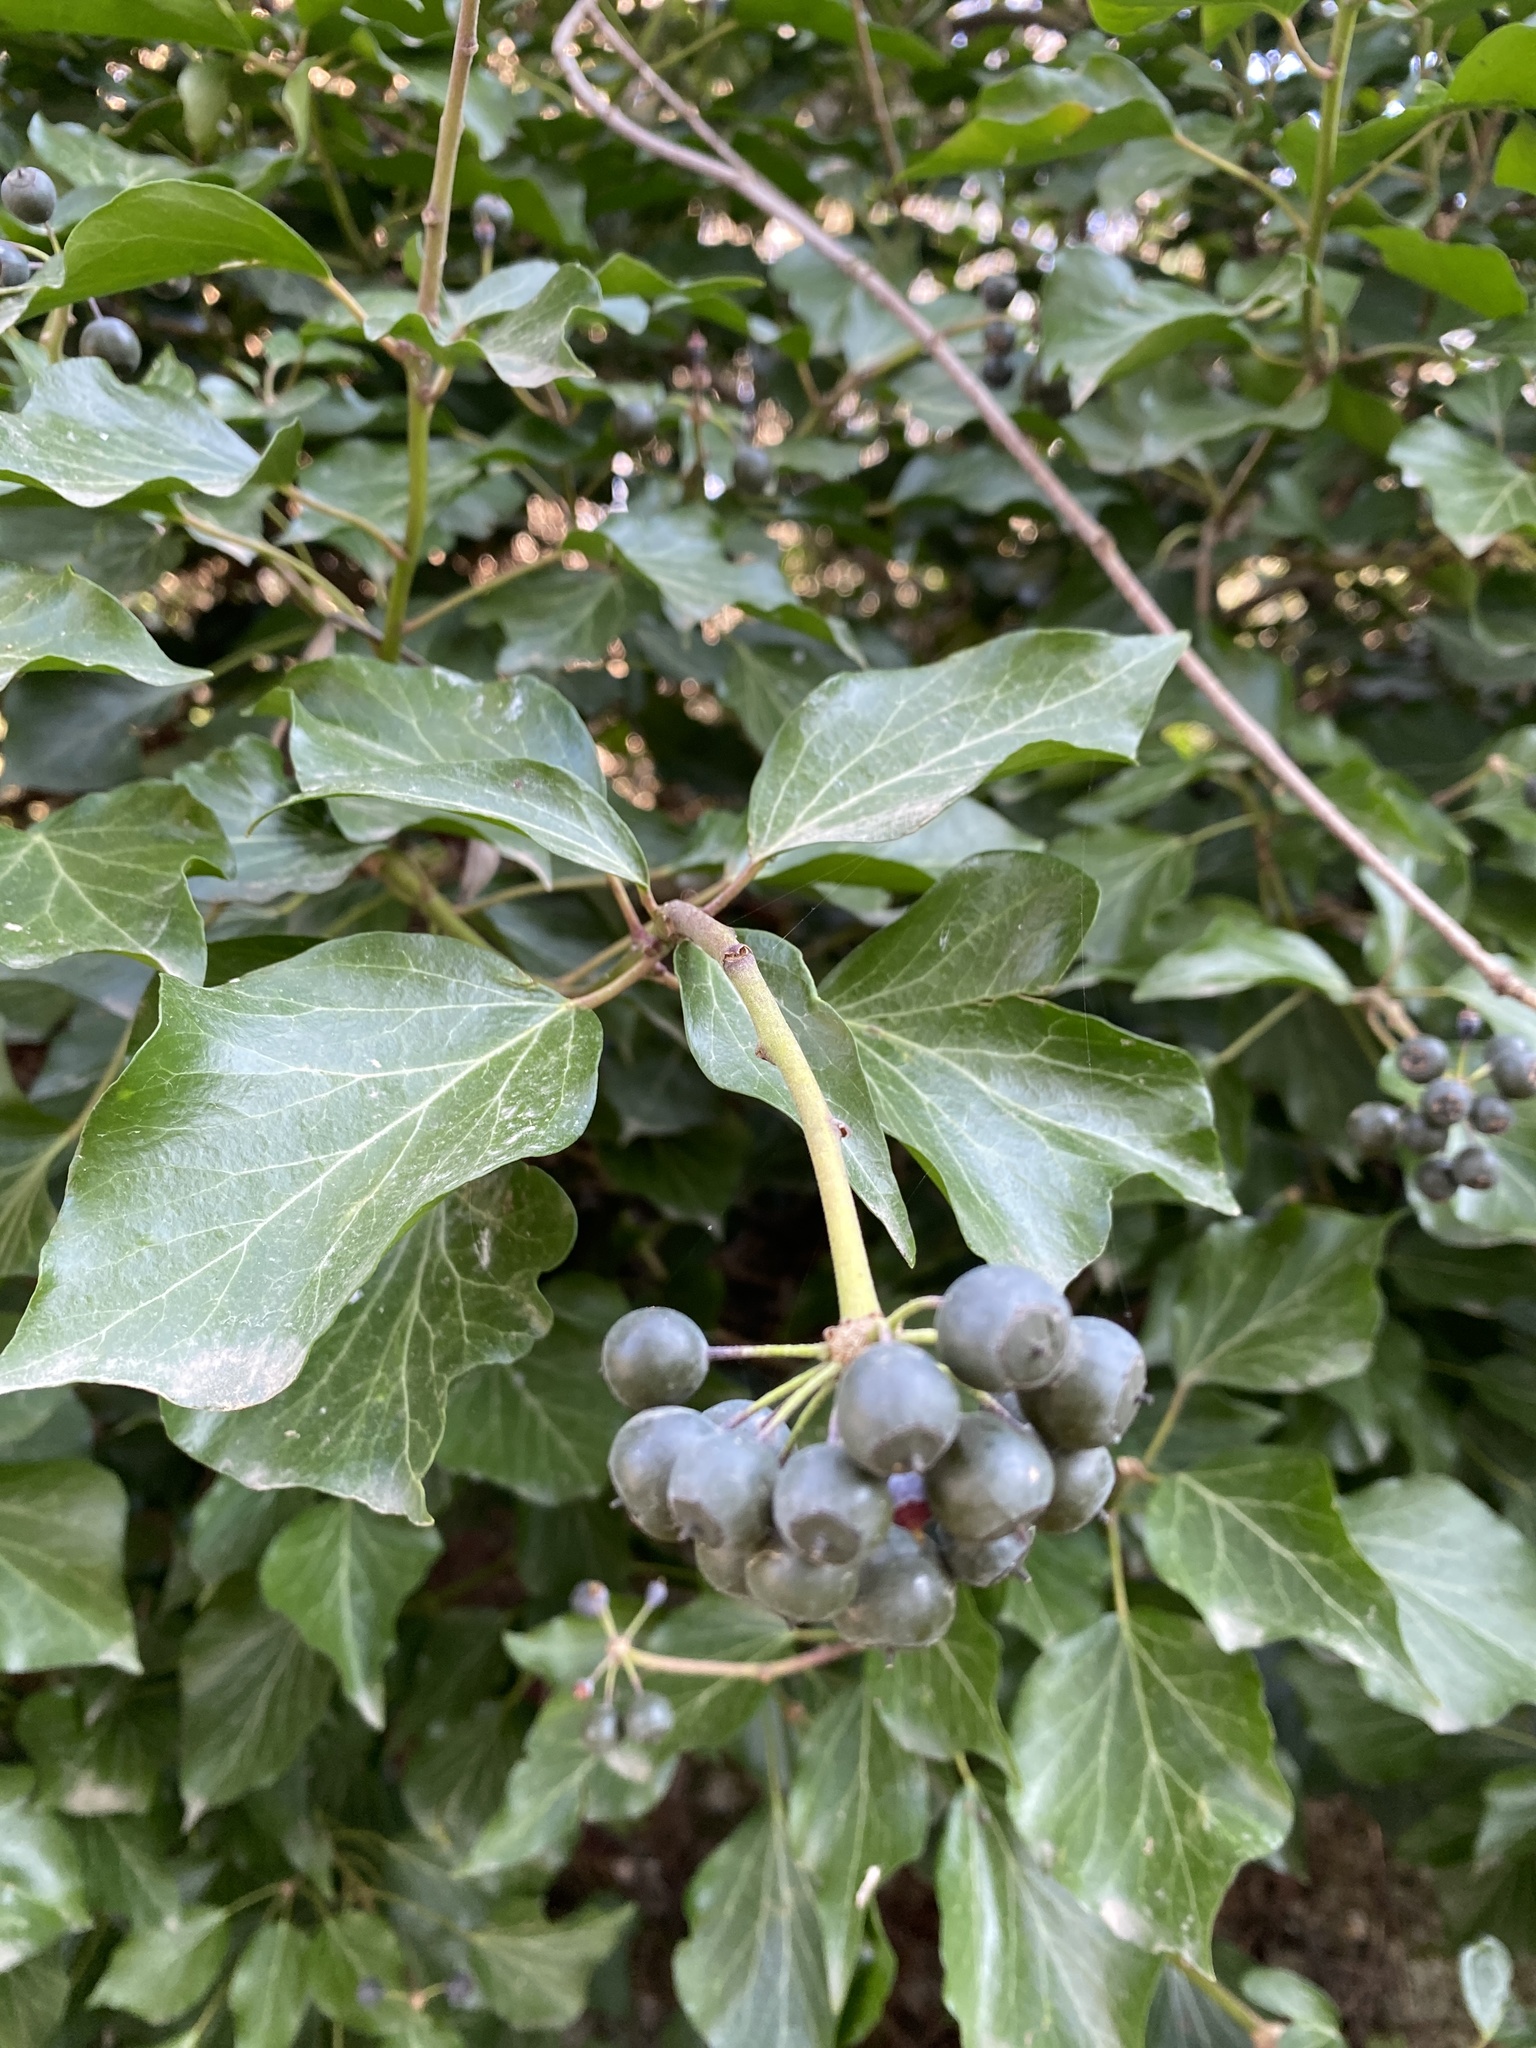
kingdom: Plantae
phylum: Tracheophyta
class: Magnoliopsida
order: Apiales
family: Araliaceae
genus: Hedera
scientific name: Hedera helix
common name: Ivy
